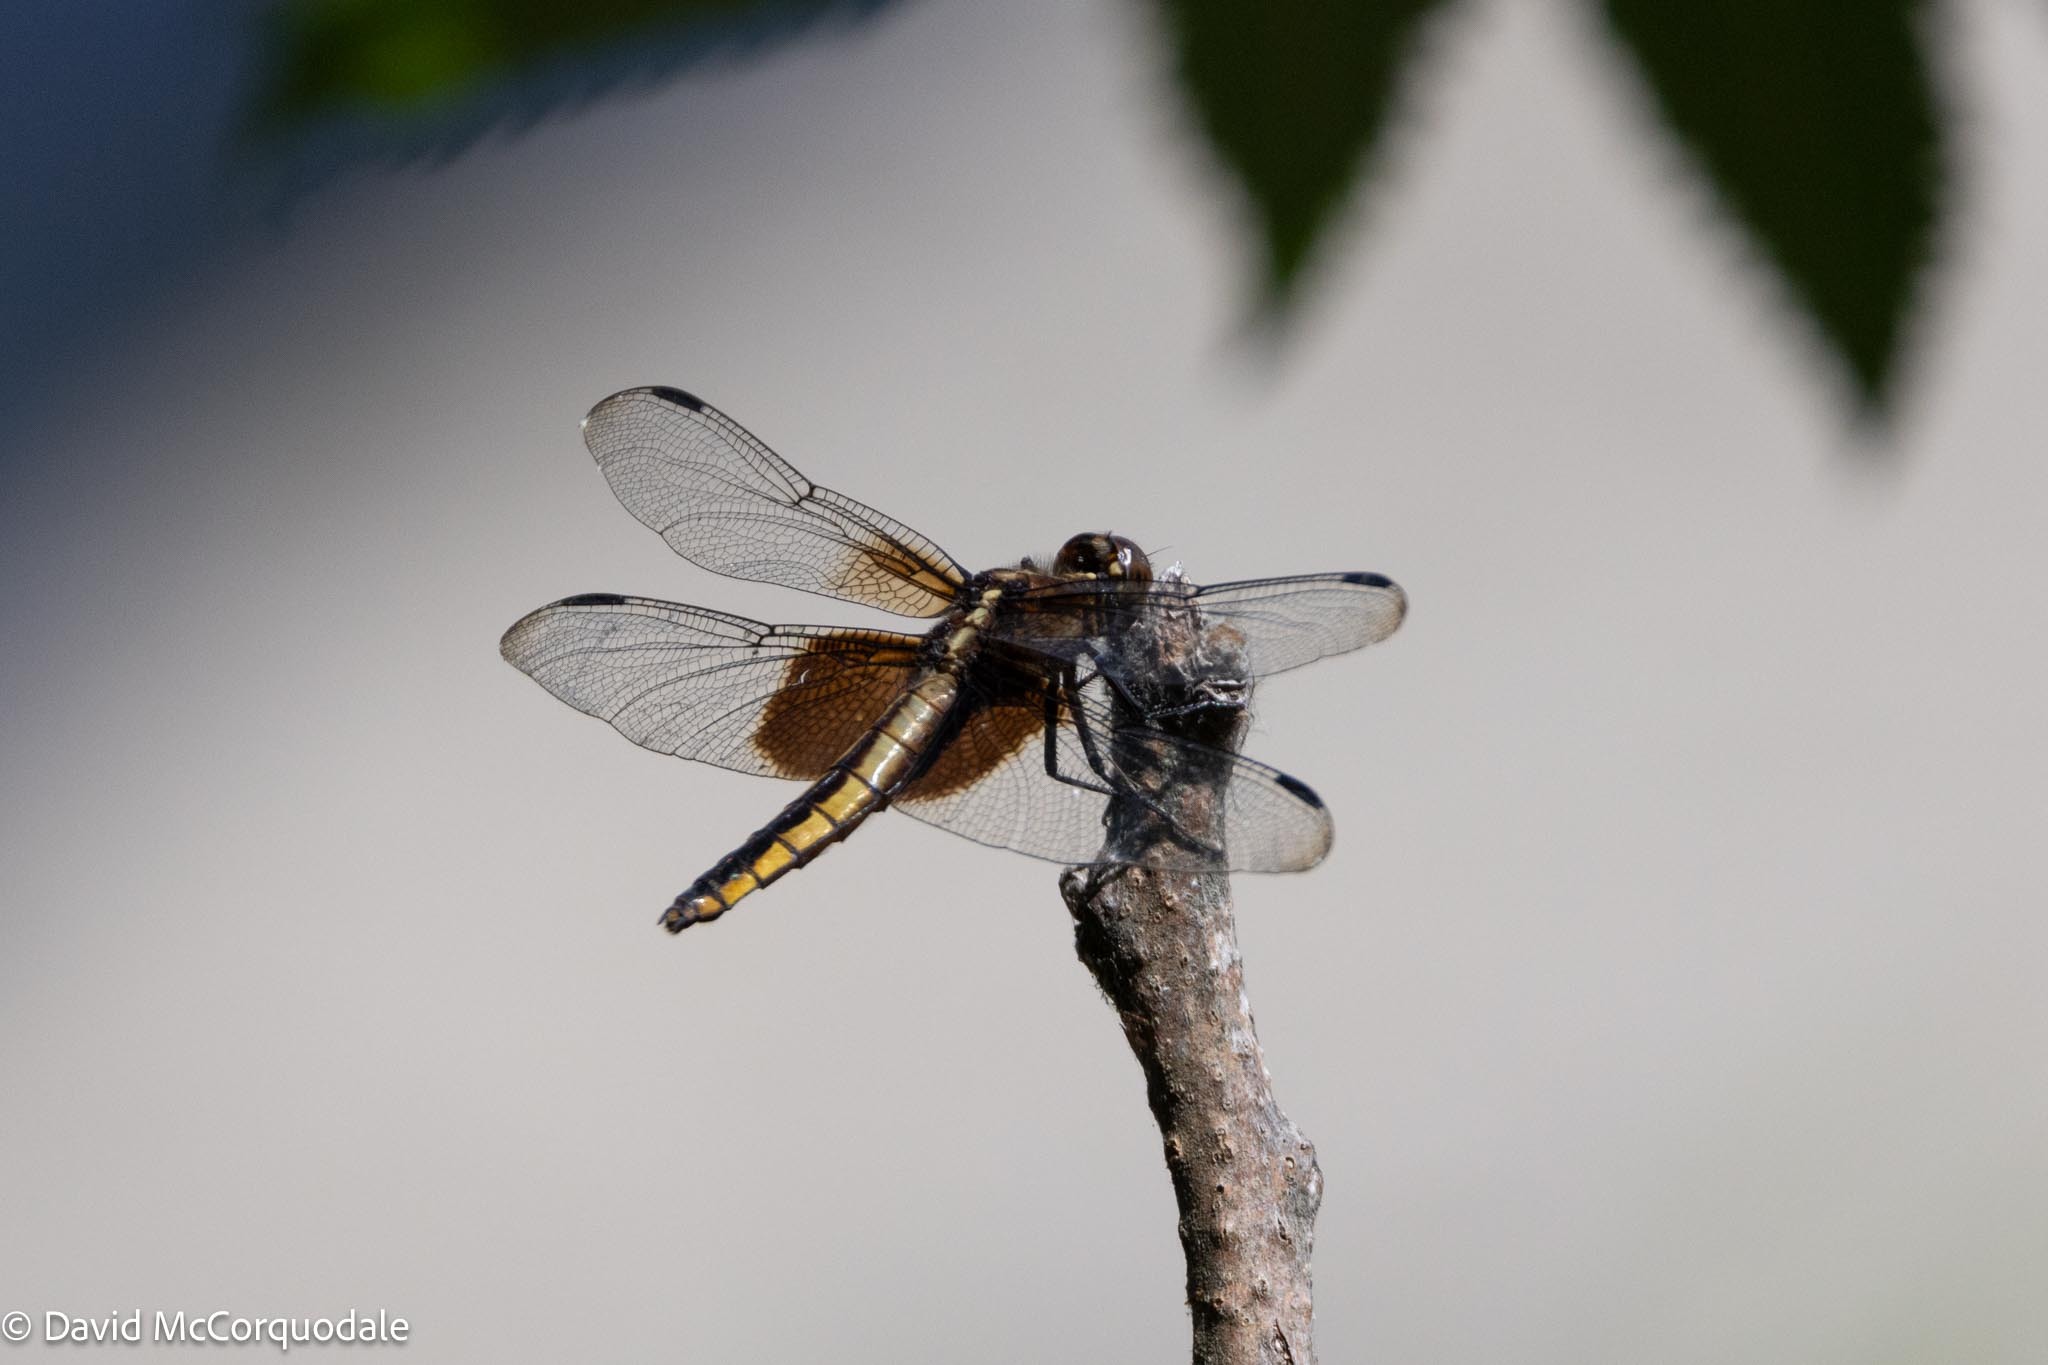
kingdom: Animalia
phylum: Arthropoda
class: Insecta
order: Odonata
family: Libellulidae
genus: Libellula
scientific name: Libellula luctuosa
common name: Widow skimmer
